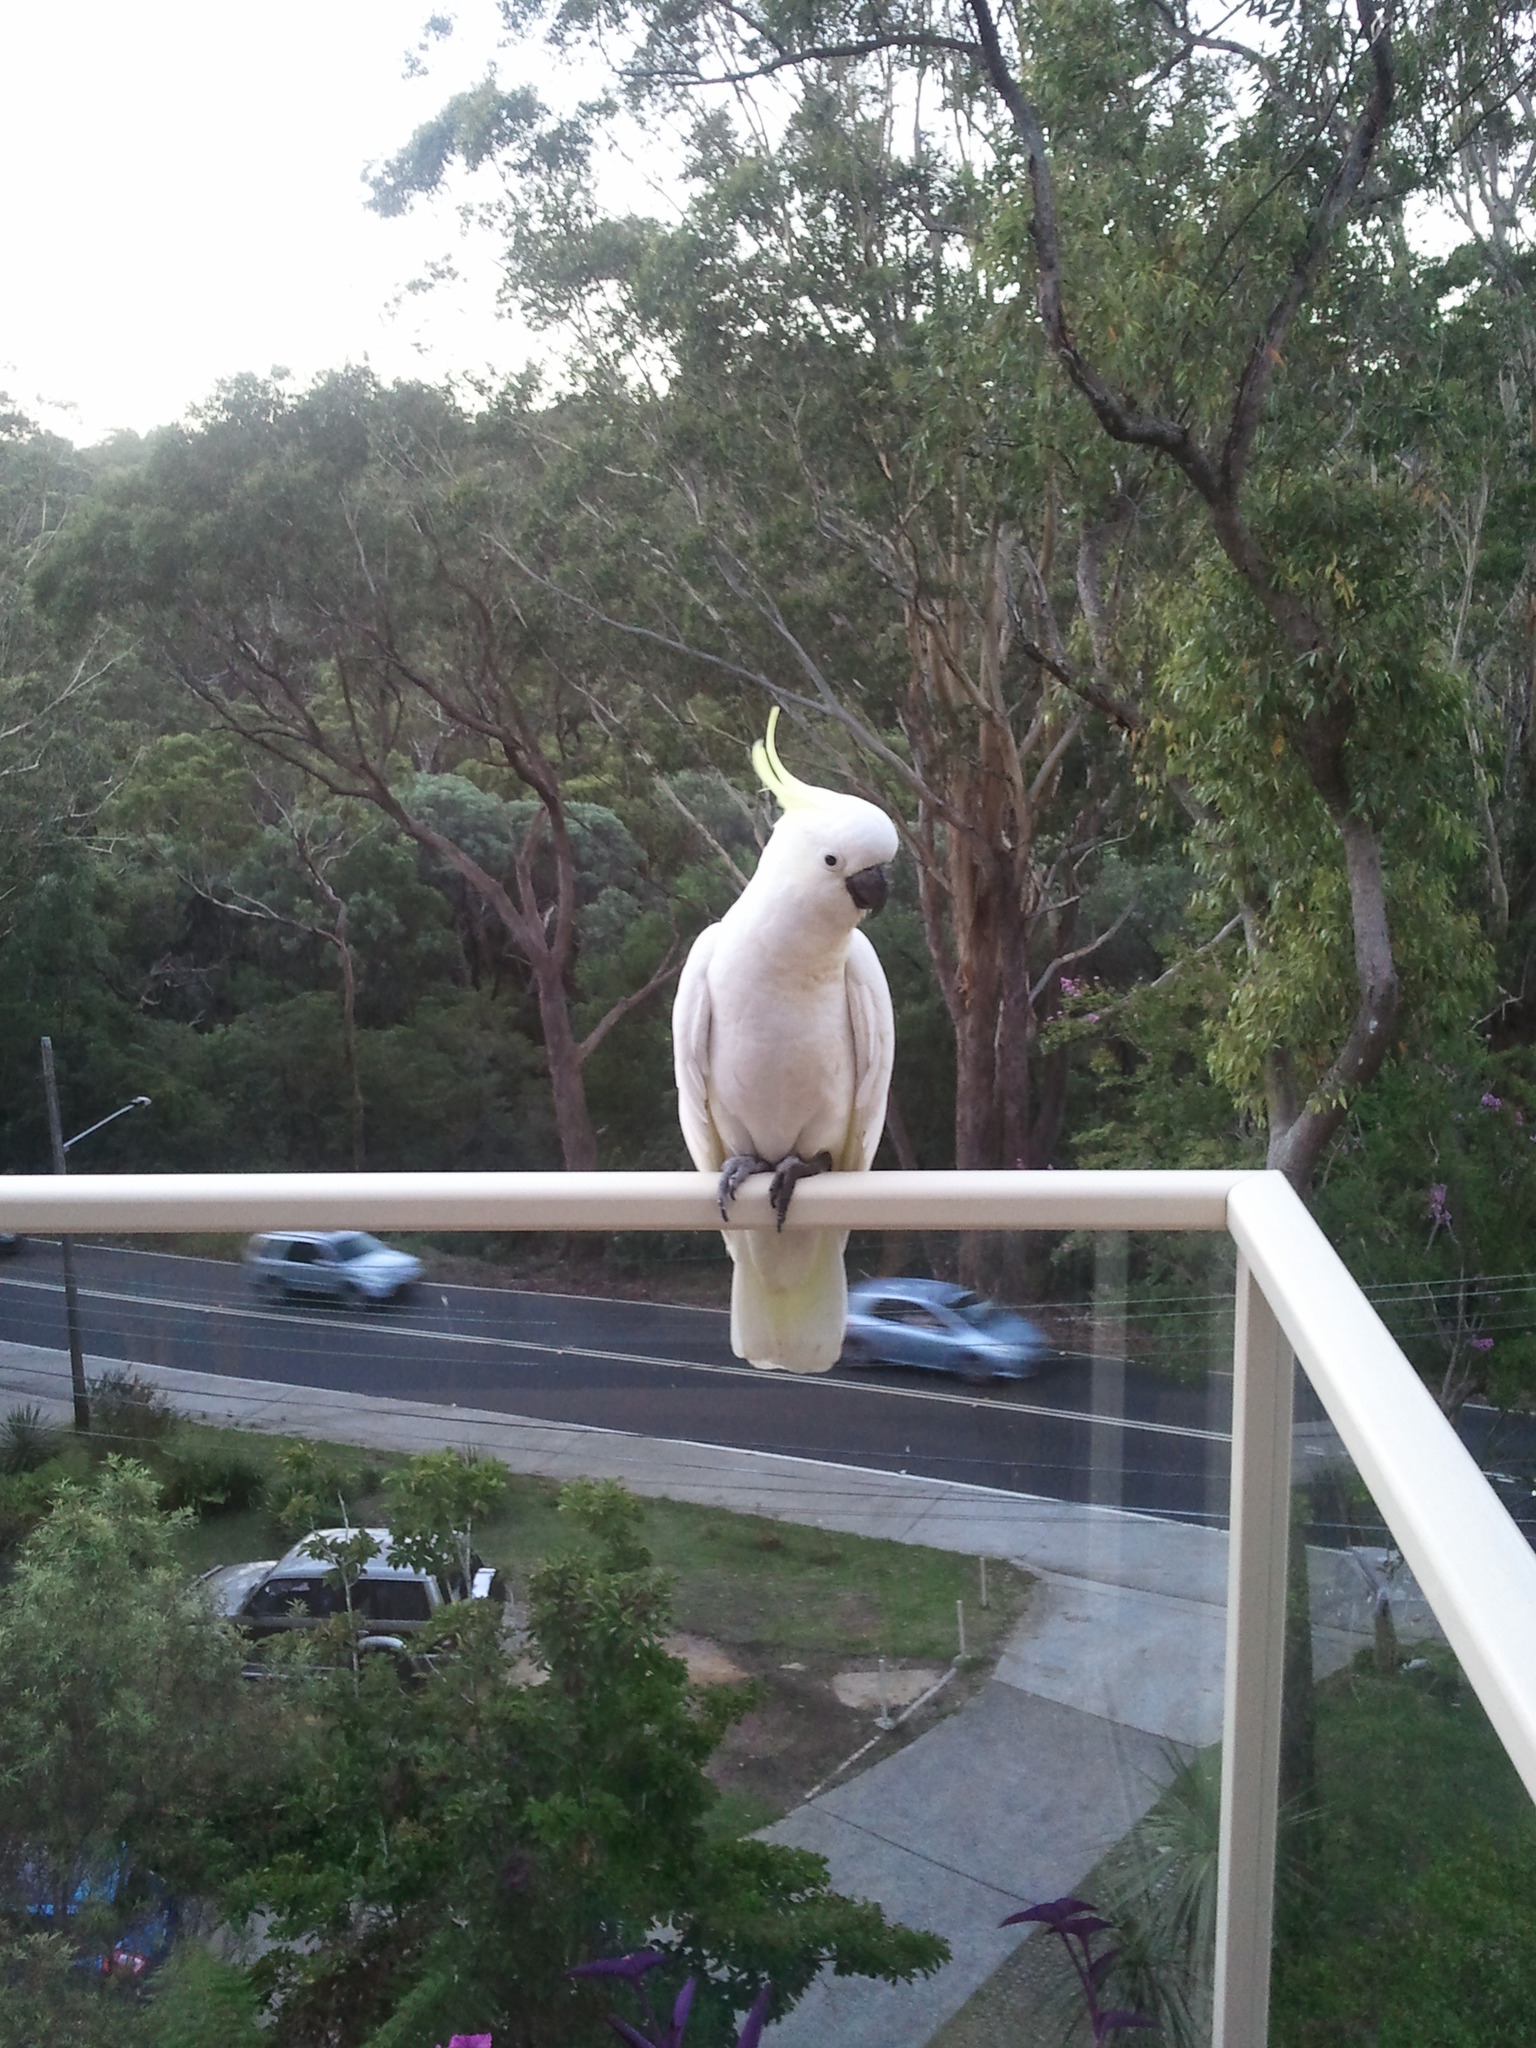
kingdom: Animalia
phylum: Chordata
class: Aves
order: Psittaciformes
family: Psittacidae
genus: Cacatua
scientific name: Cacatua galerita
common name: Sulphur-crested cockatoo
